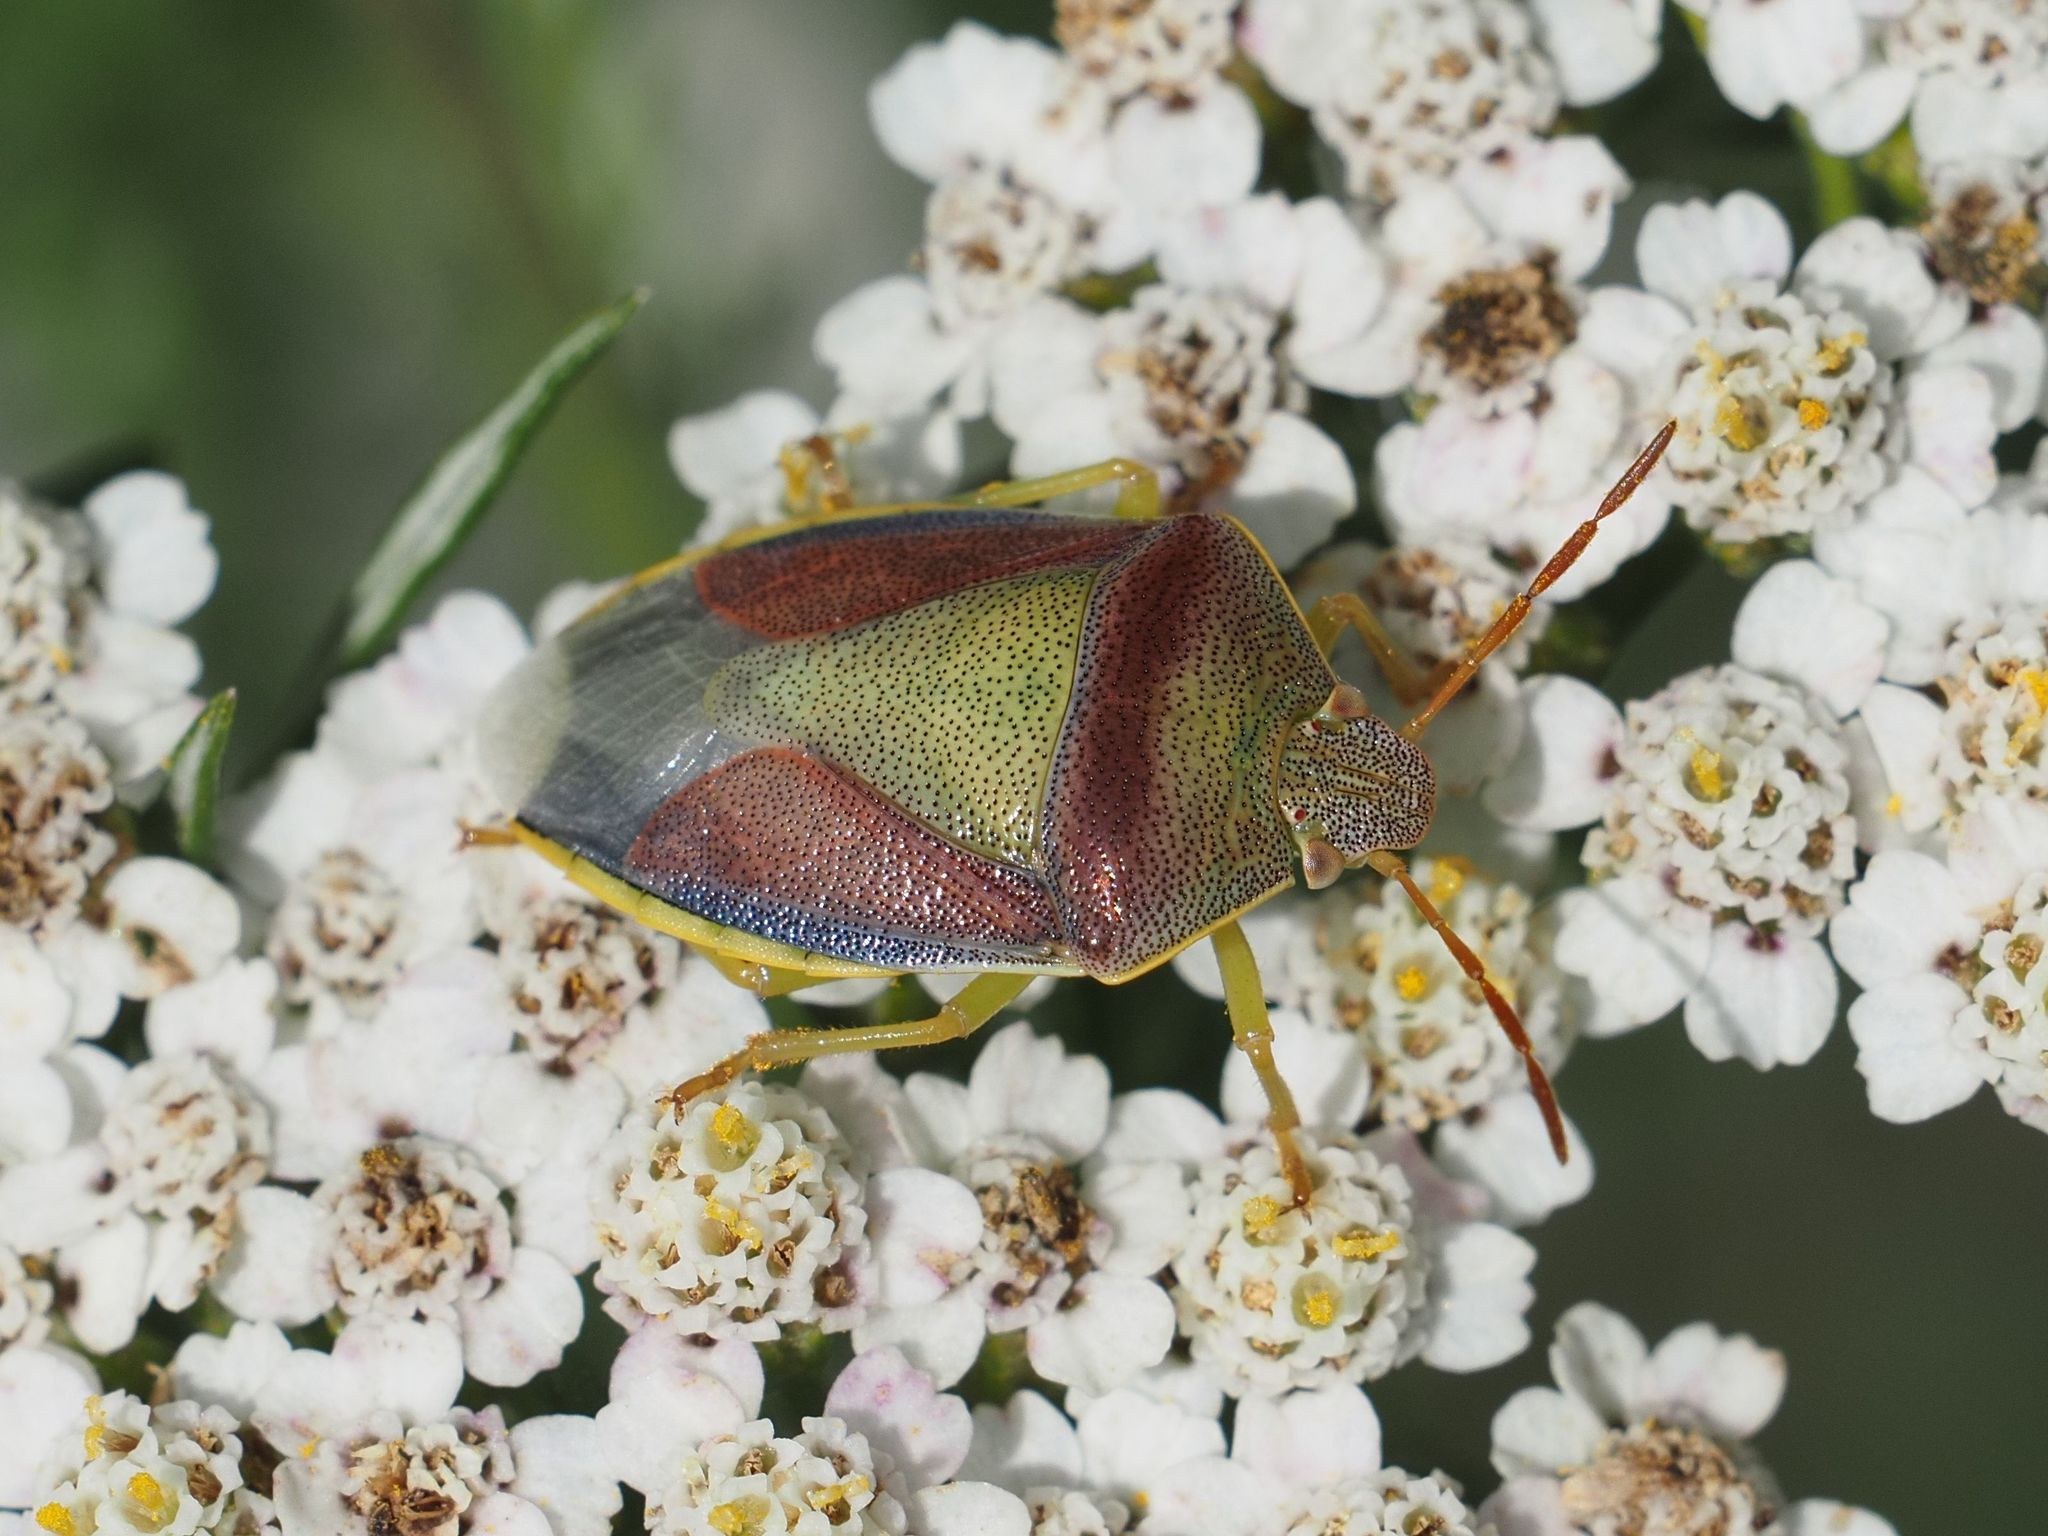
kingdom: Animalia
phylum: Arthropoda
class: Insecta
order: Hemiptera
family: Pentatomidae
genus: Piezodorus
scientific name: Piezodorus lituratus
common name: Stink bug
